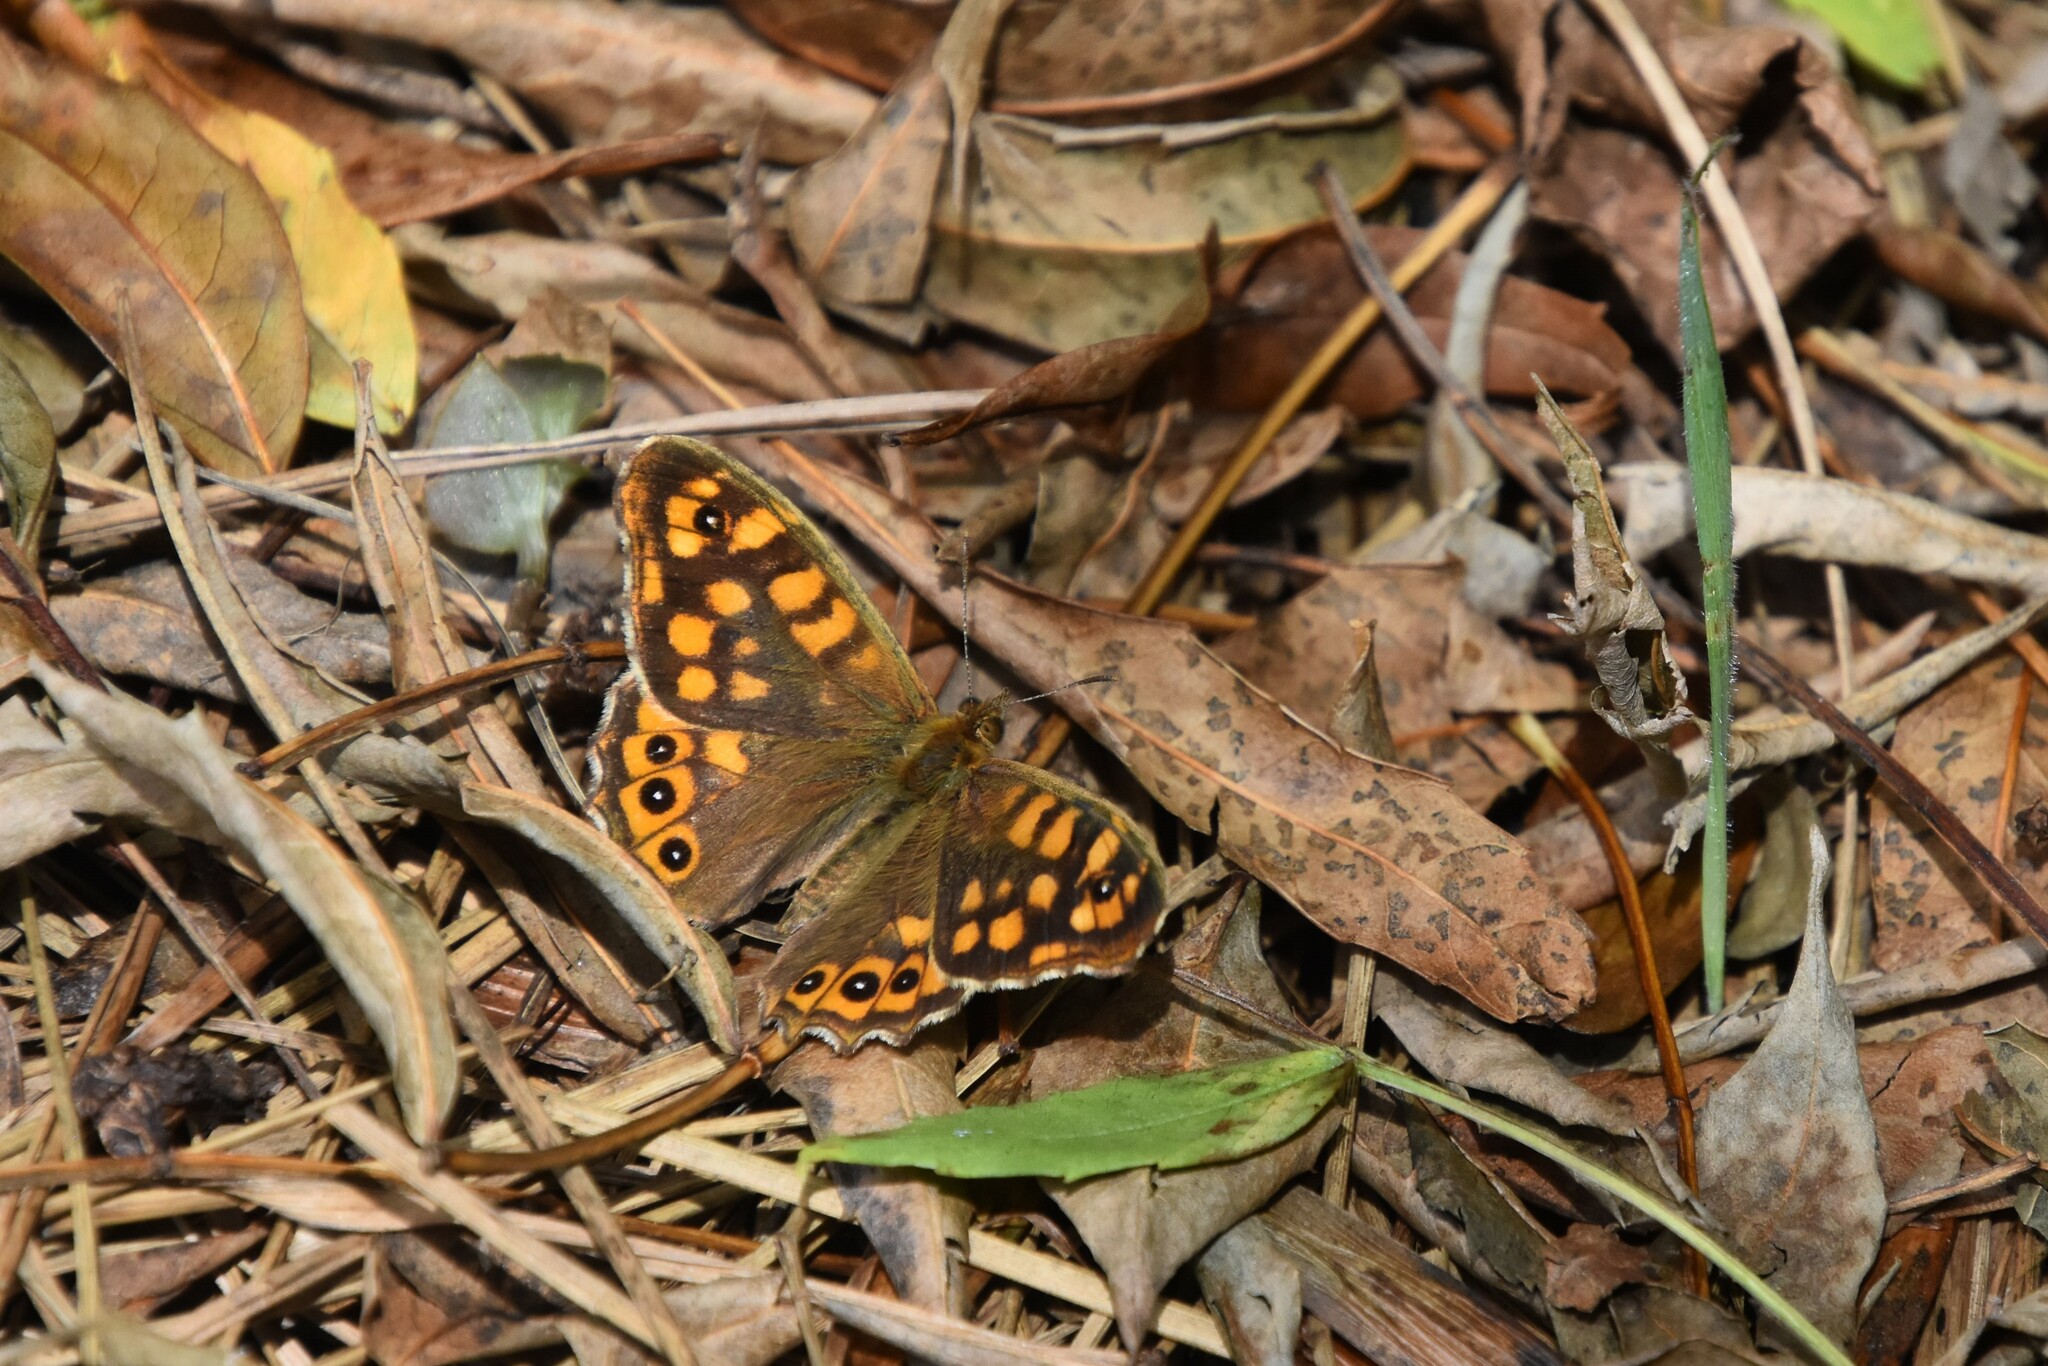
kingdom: Animalia
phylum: Arthropoda
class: Insecta
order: Lepidoptera
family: Nymphalidae
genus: Pararge
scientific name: Pararge aegeria
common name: Speckled wood
